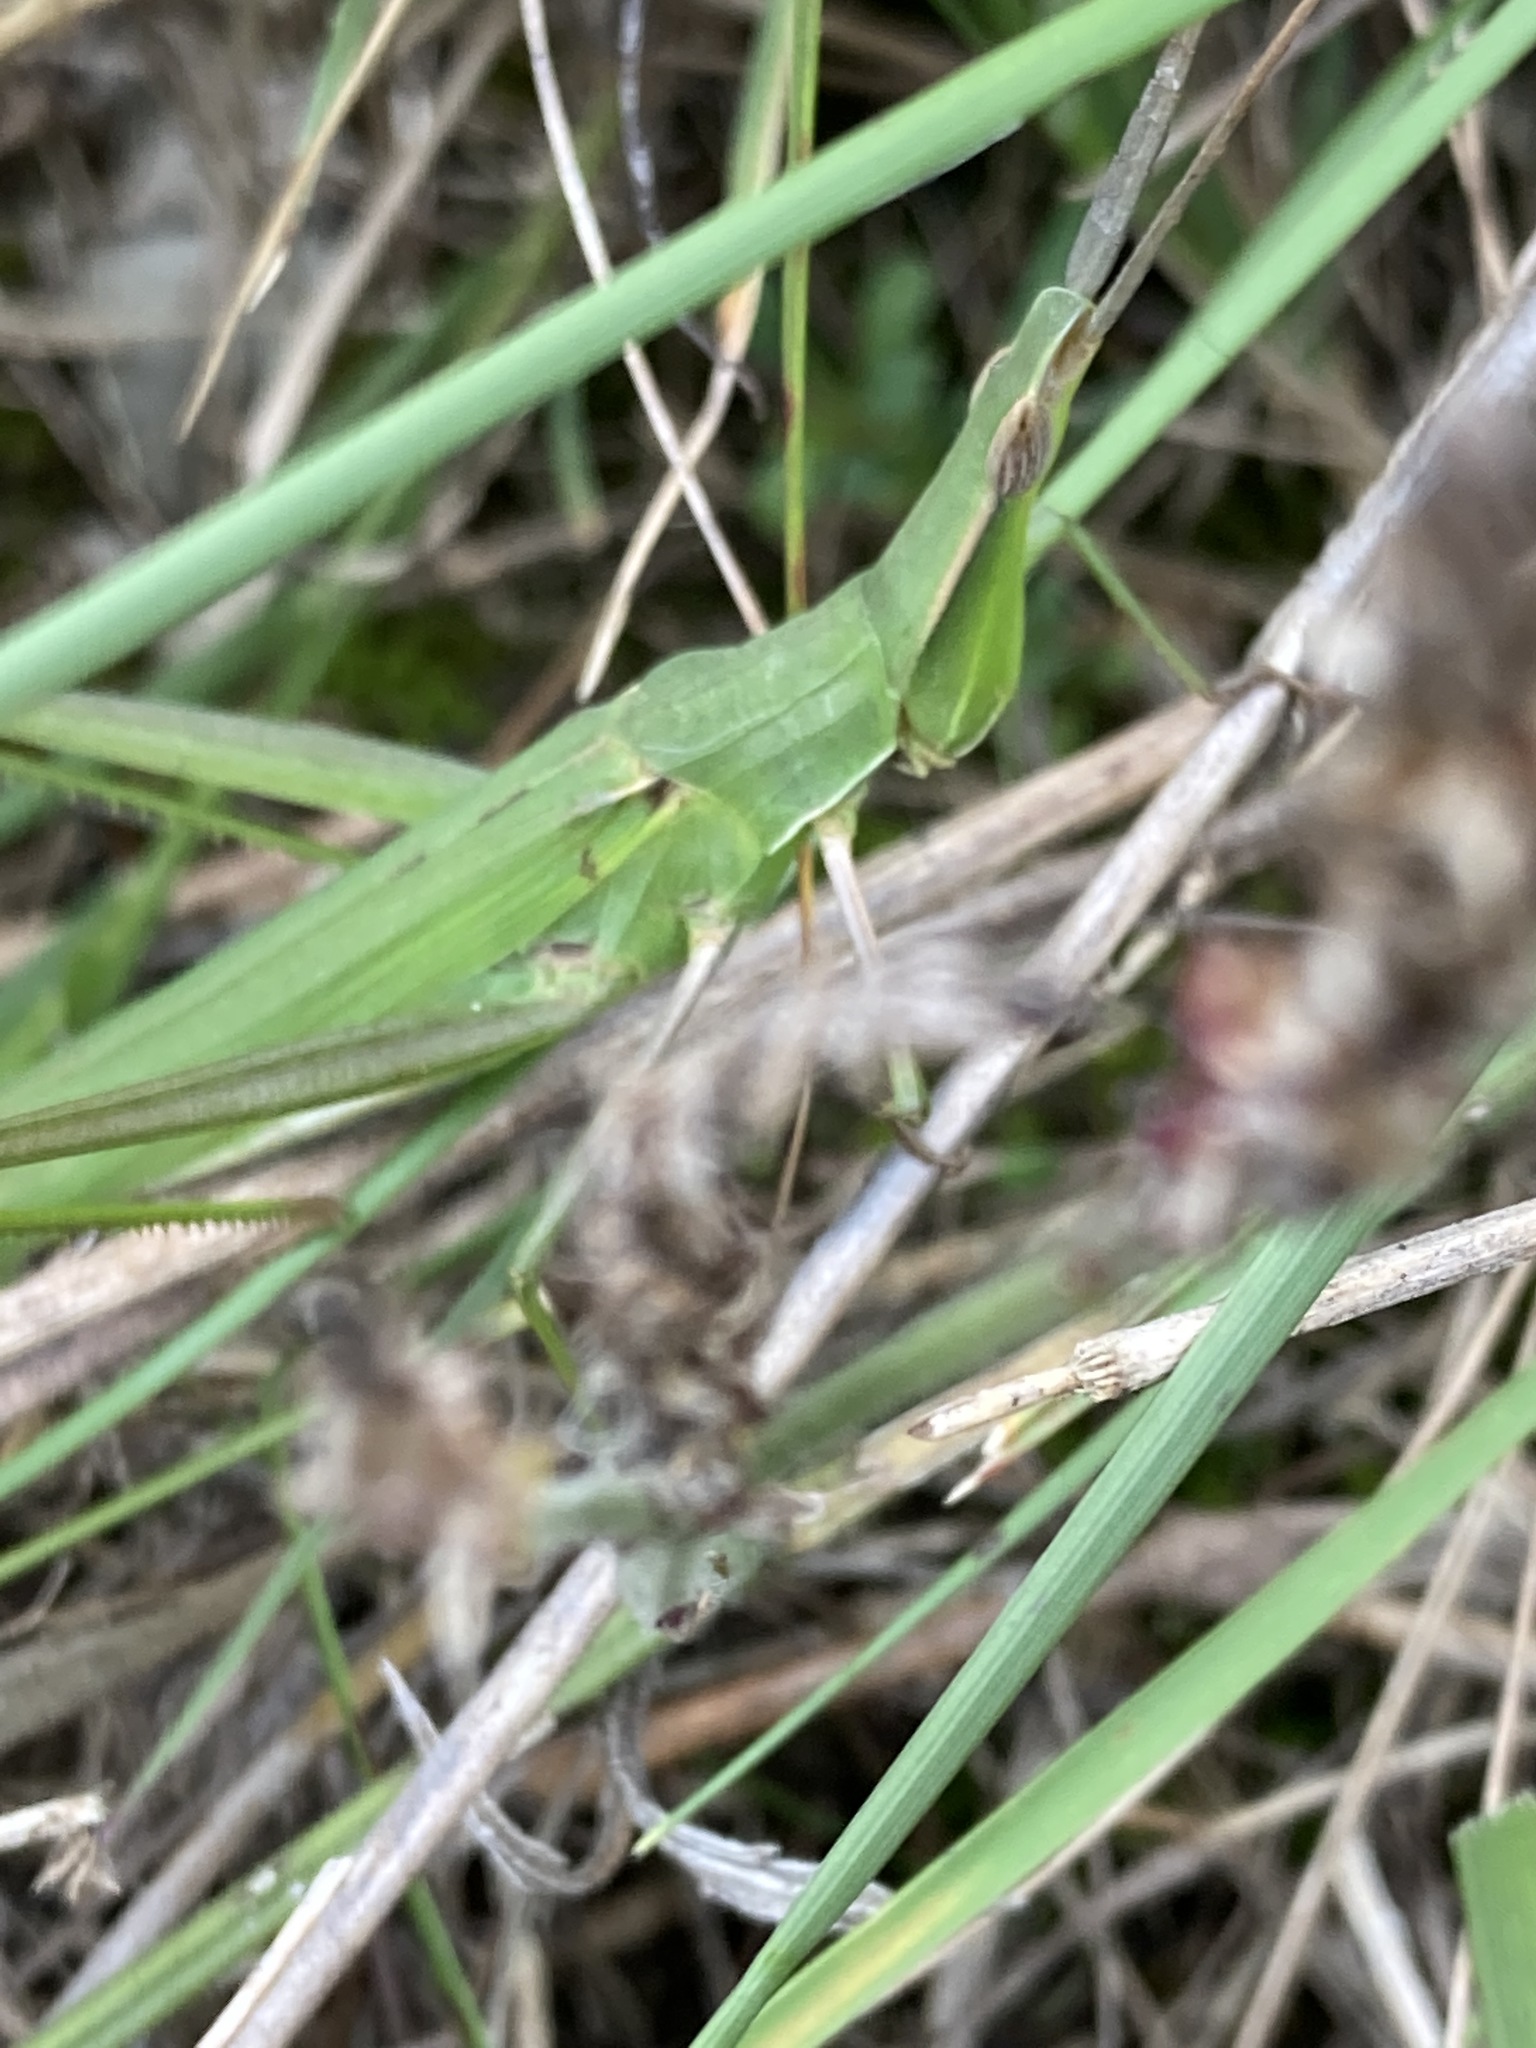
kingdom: Animalia
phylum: Arthropoda
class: Insecta
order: Orthoptera
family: Acrididae
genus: Acrida
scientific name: Acrida conica
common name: Giant green slantface
